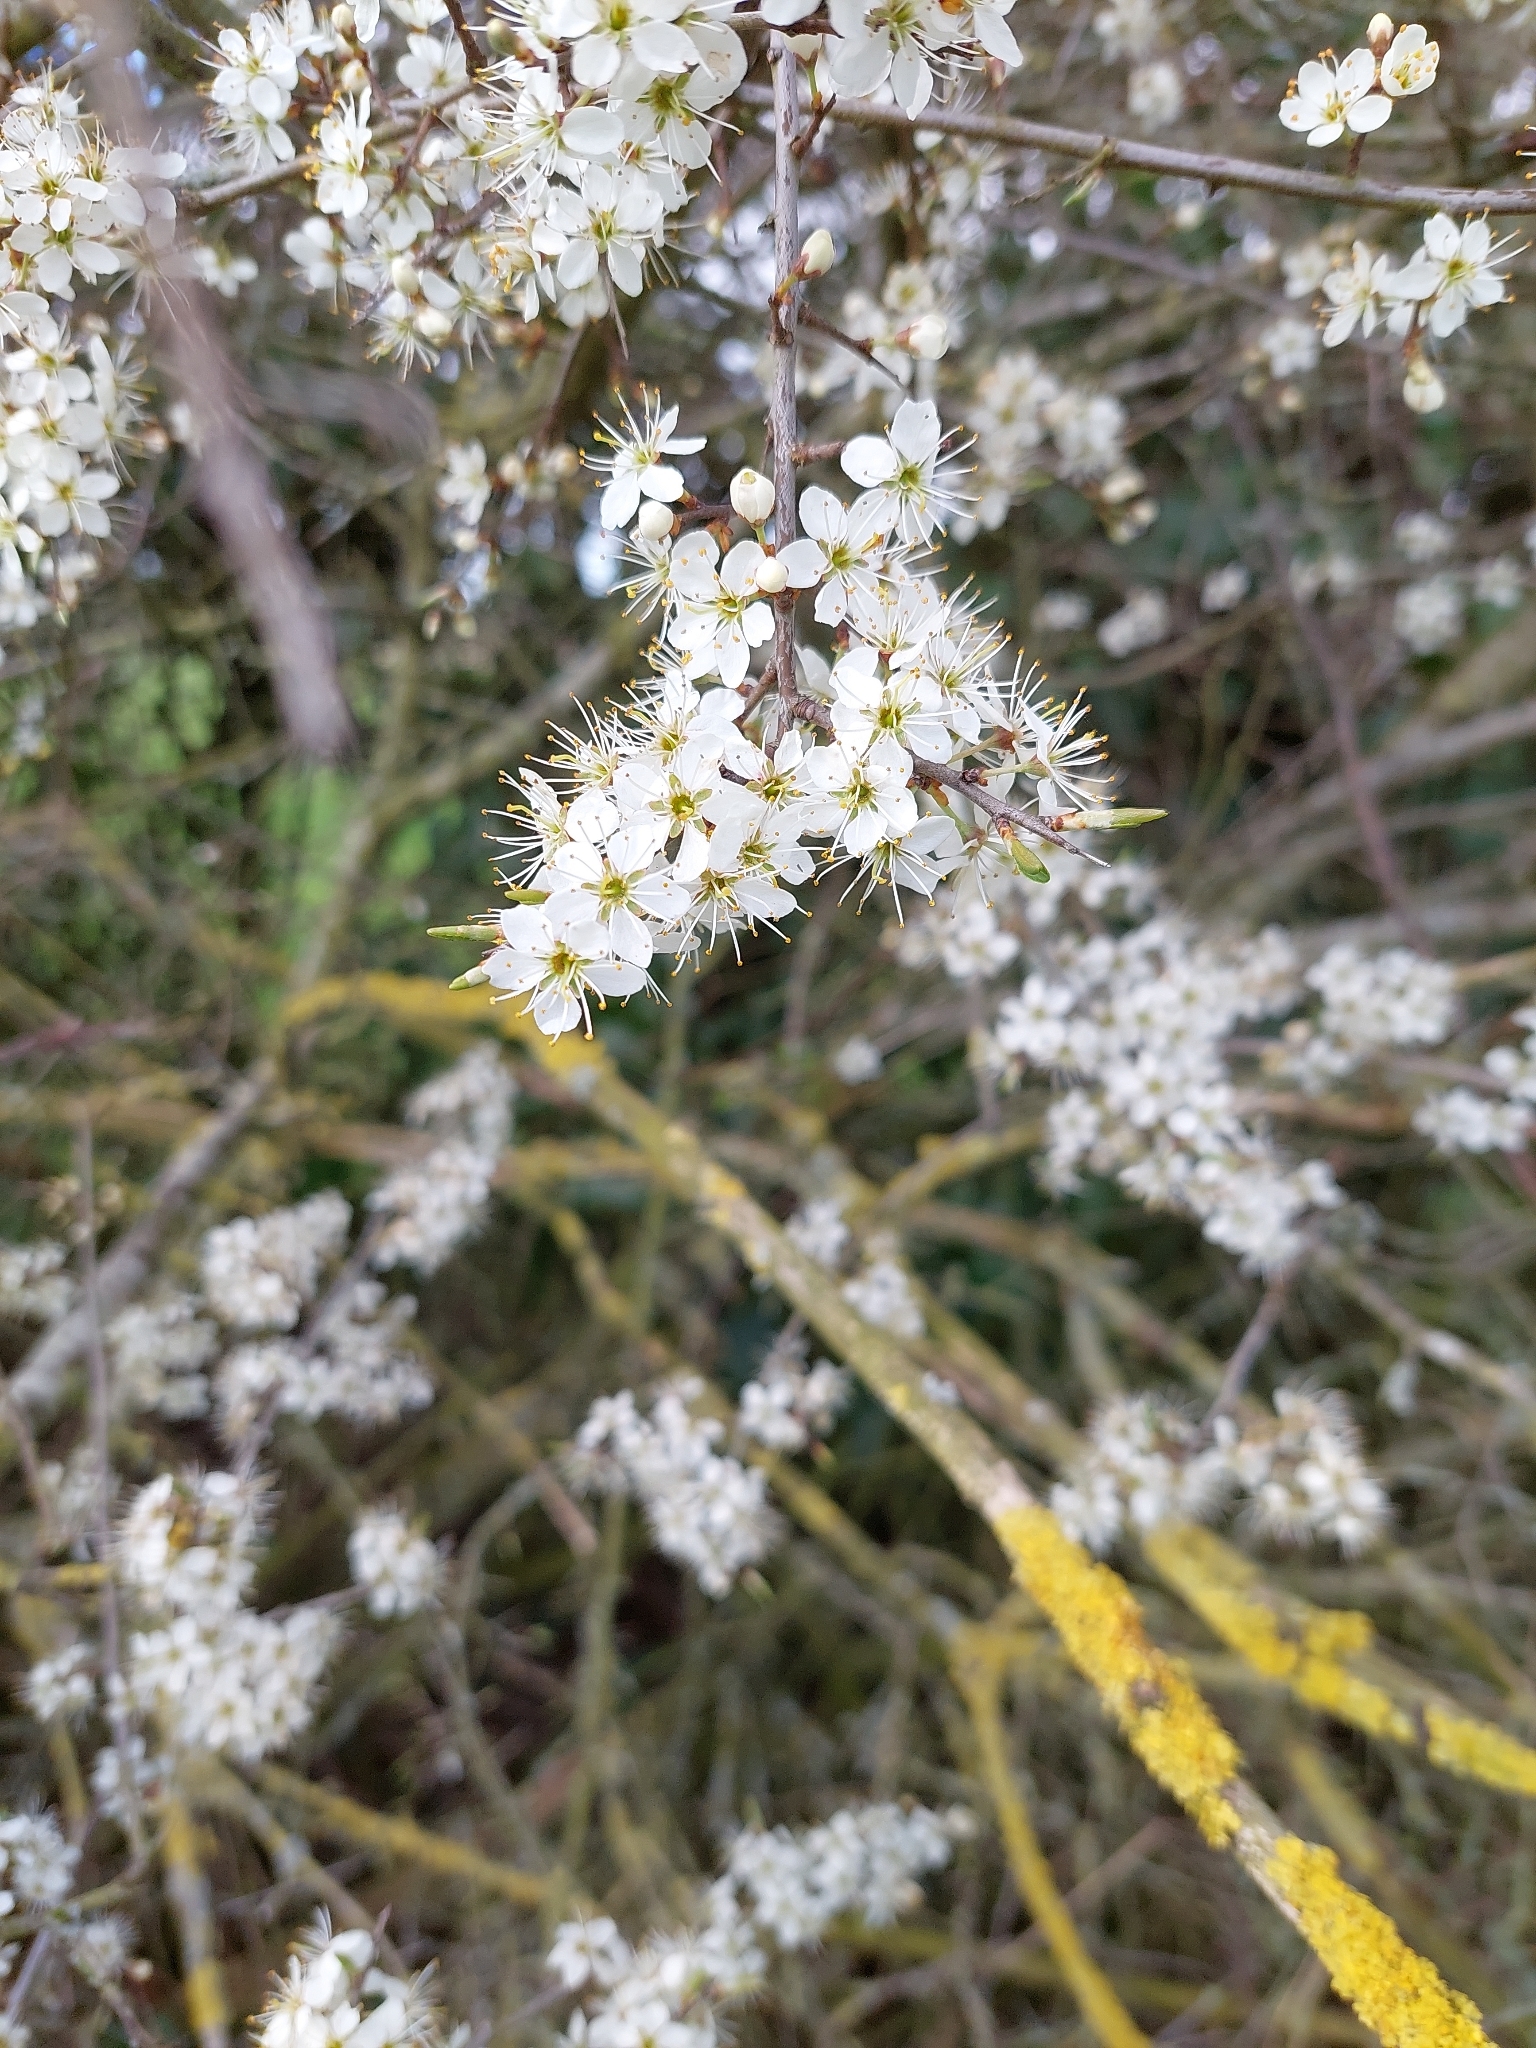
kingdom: Plantae
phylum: Tracheophyta
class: Magnoliopsida
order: Rosales
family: Rosaceae
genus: Prunus
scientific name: Prunus spinosa
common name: Blackthorn
